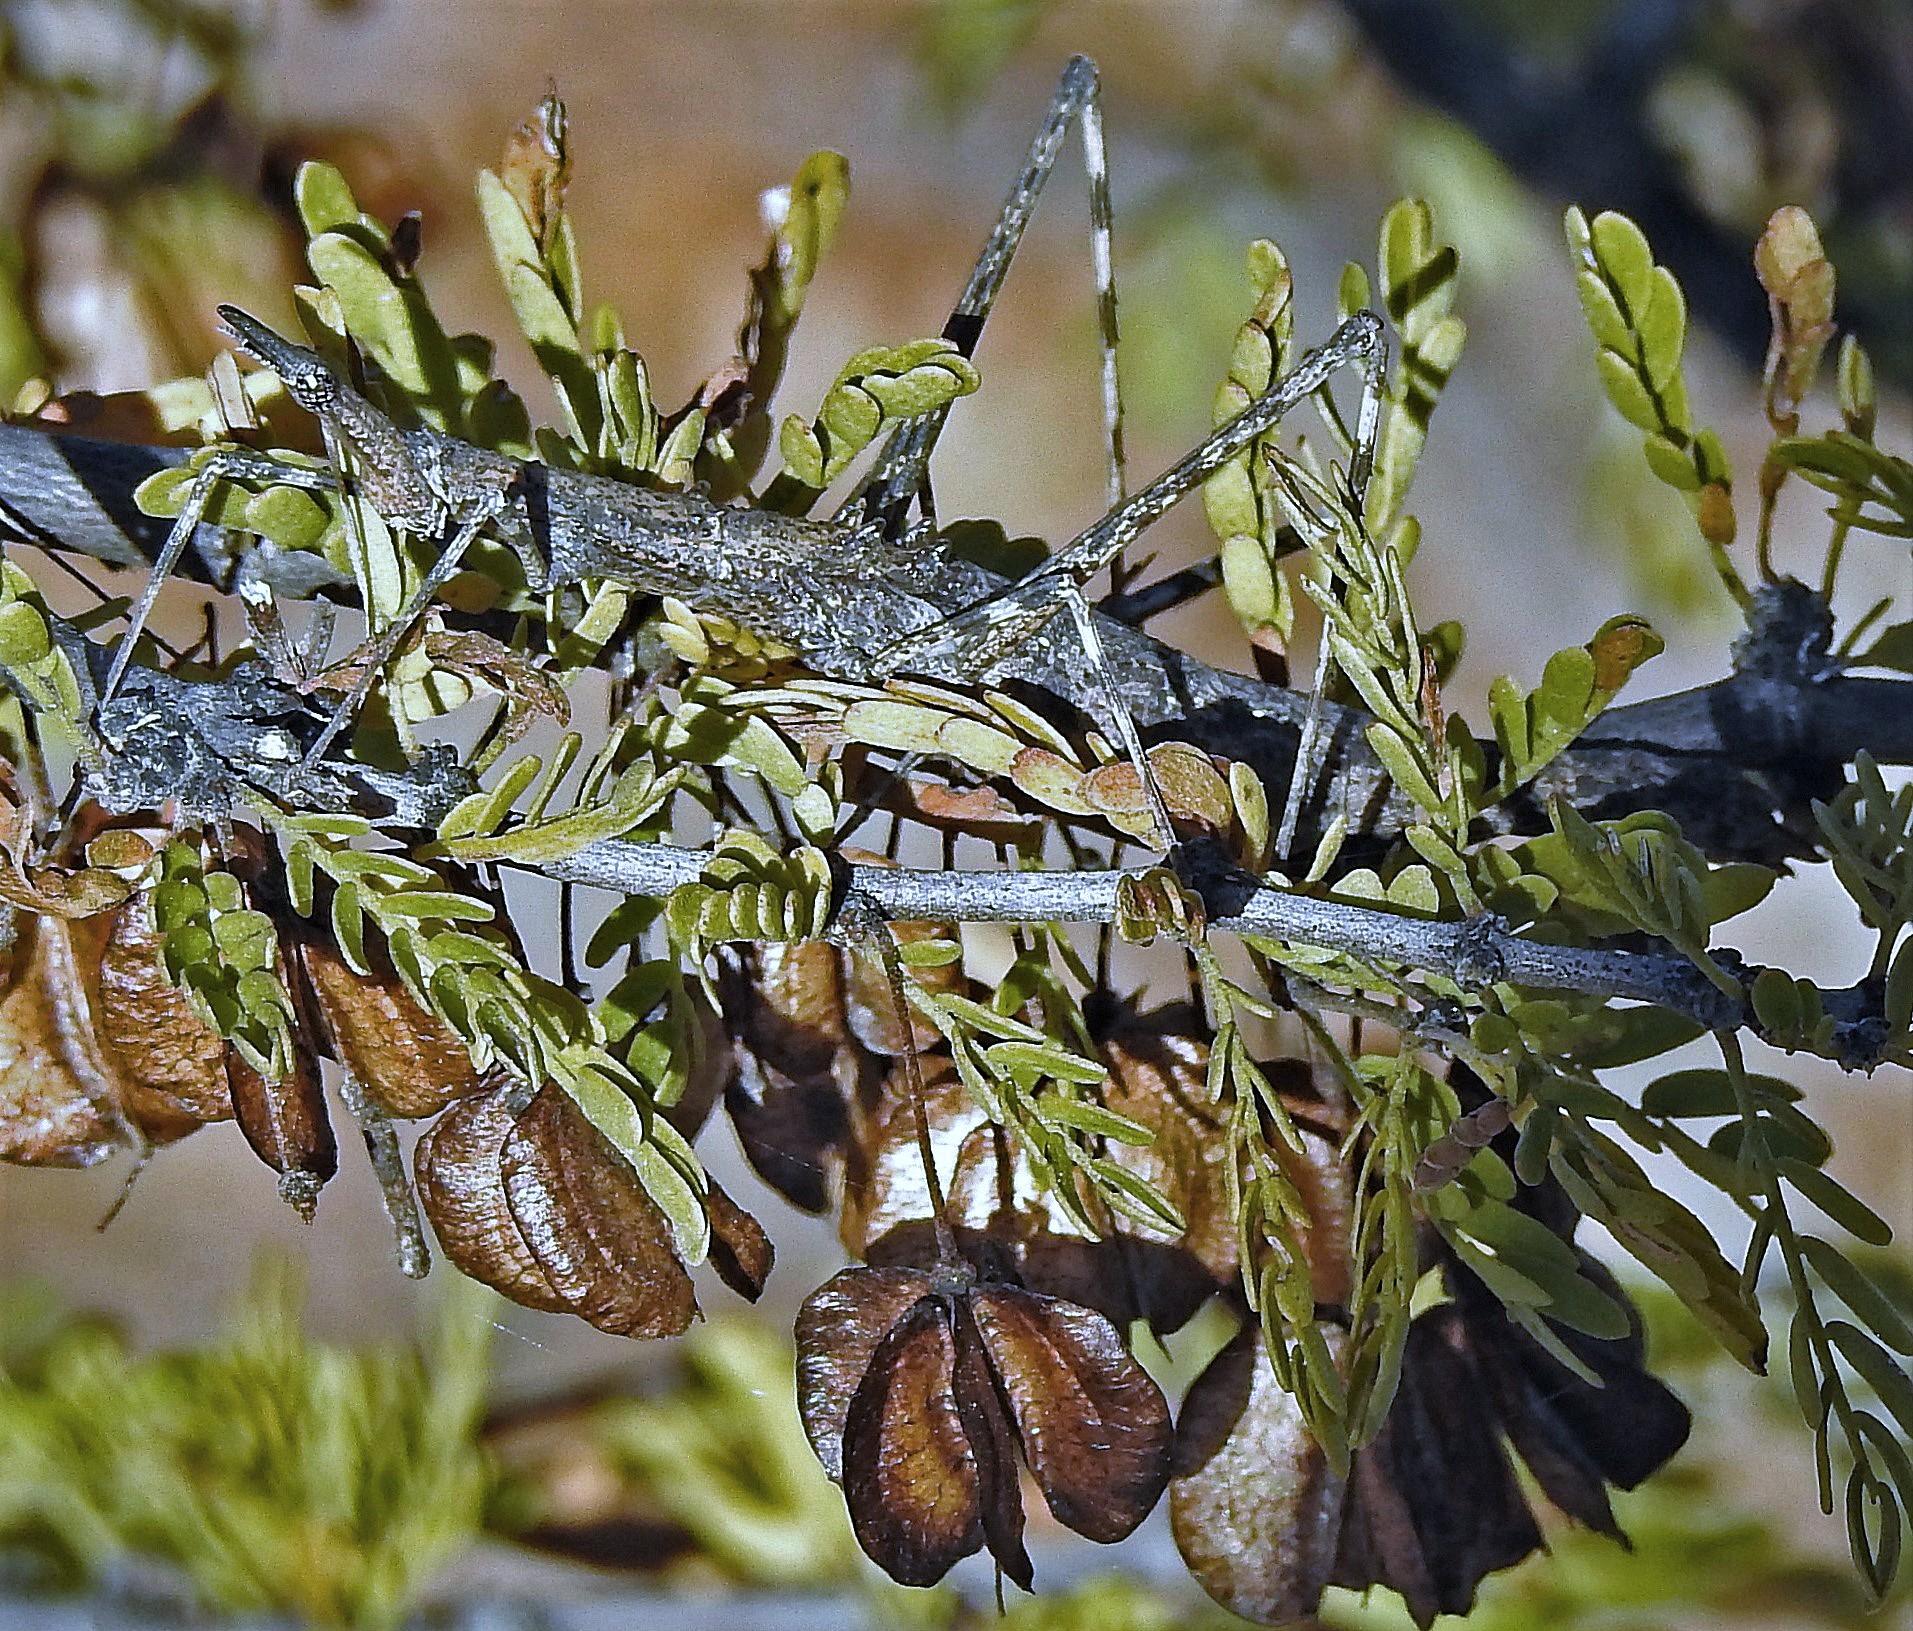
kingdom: Plantae
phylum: Tracheophyta
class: Magnoliopsida
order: Zygophyllales
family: Zygophyllaceae
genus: Bulnesia
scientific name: Bulnesia schickendantzii
